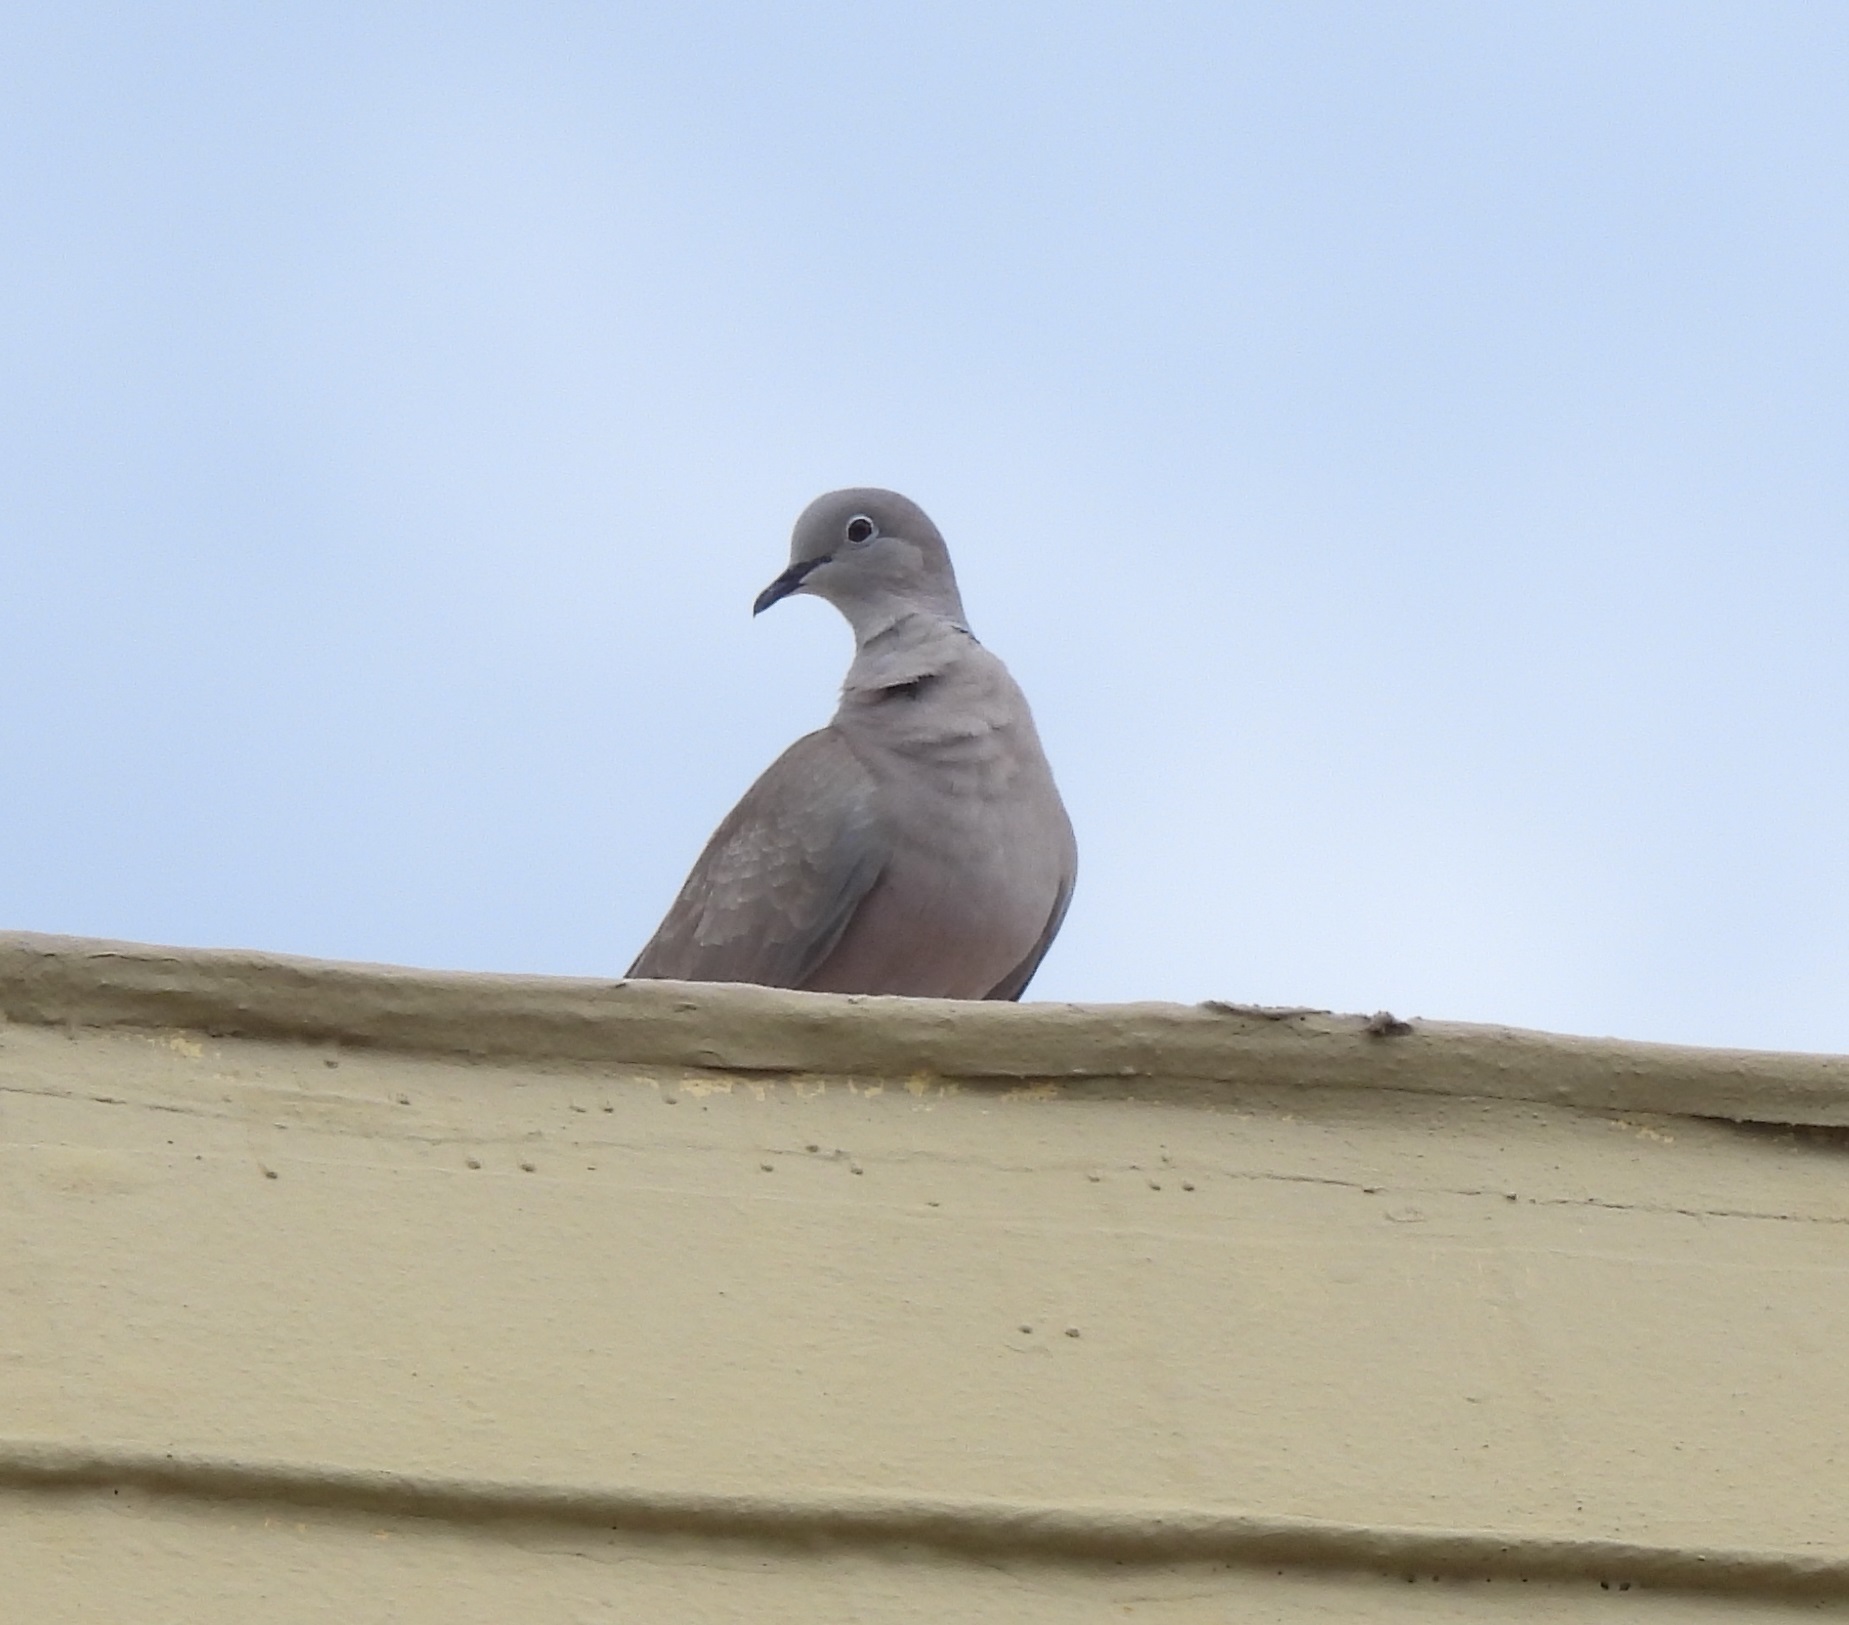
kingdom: Animalia
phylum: Chordata
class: Aves
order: Columbiformes
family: Columbidae
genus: Streptopelia
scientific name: Streptopelia decaocto
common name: Eurasian collared dove
